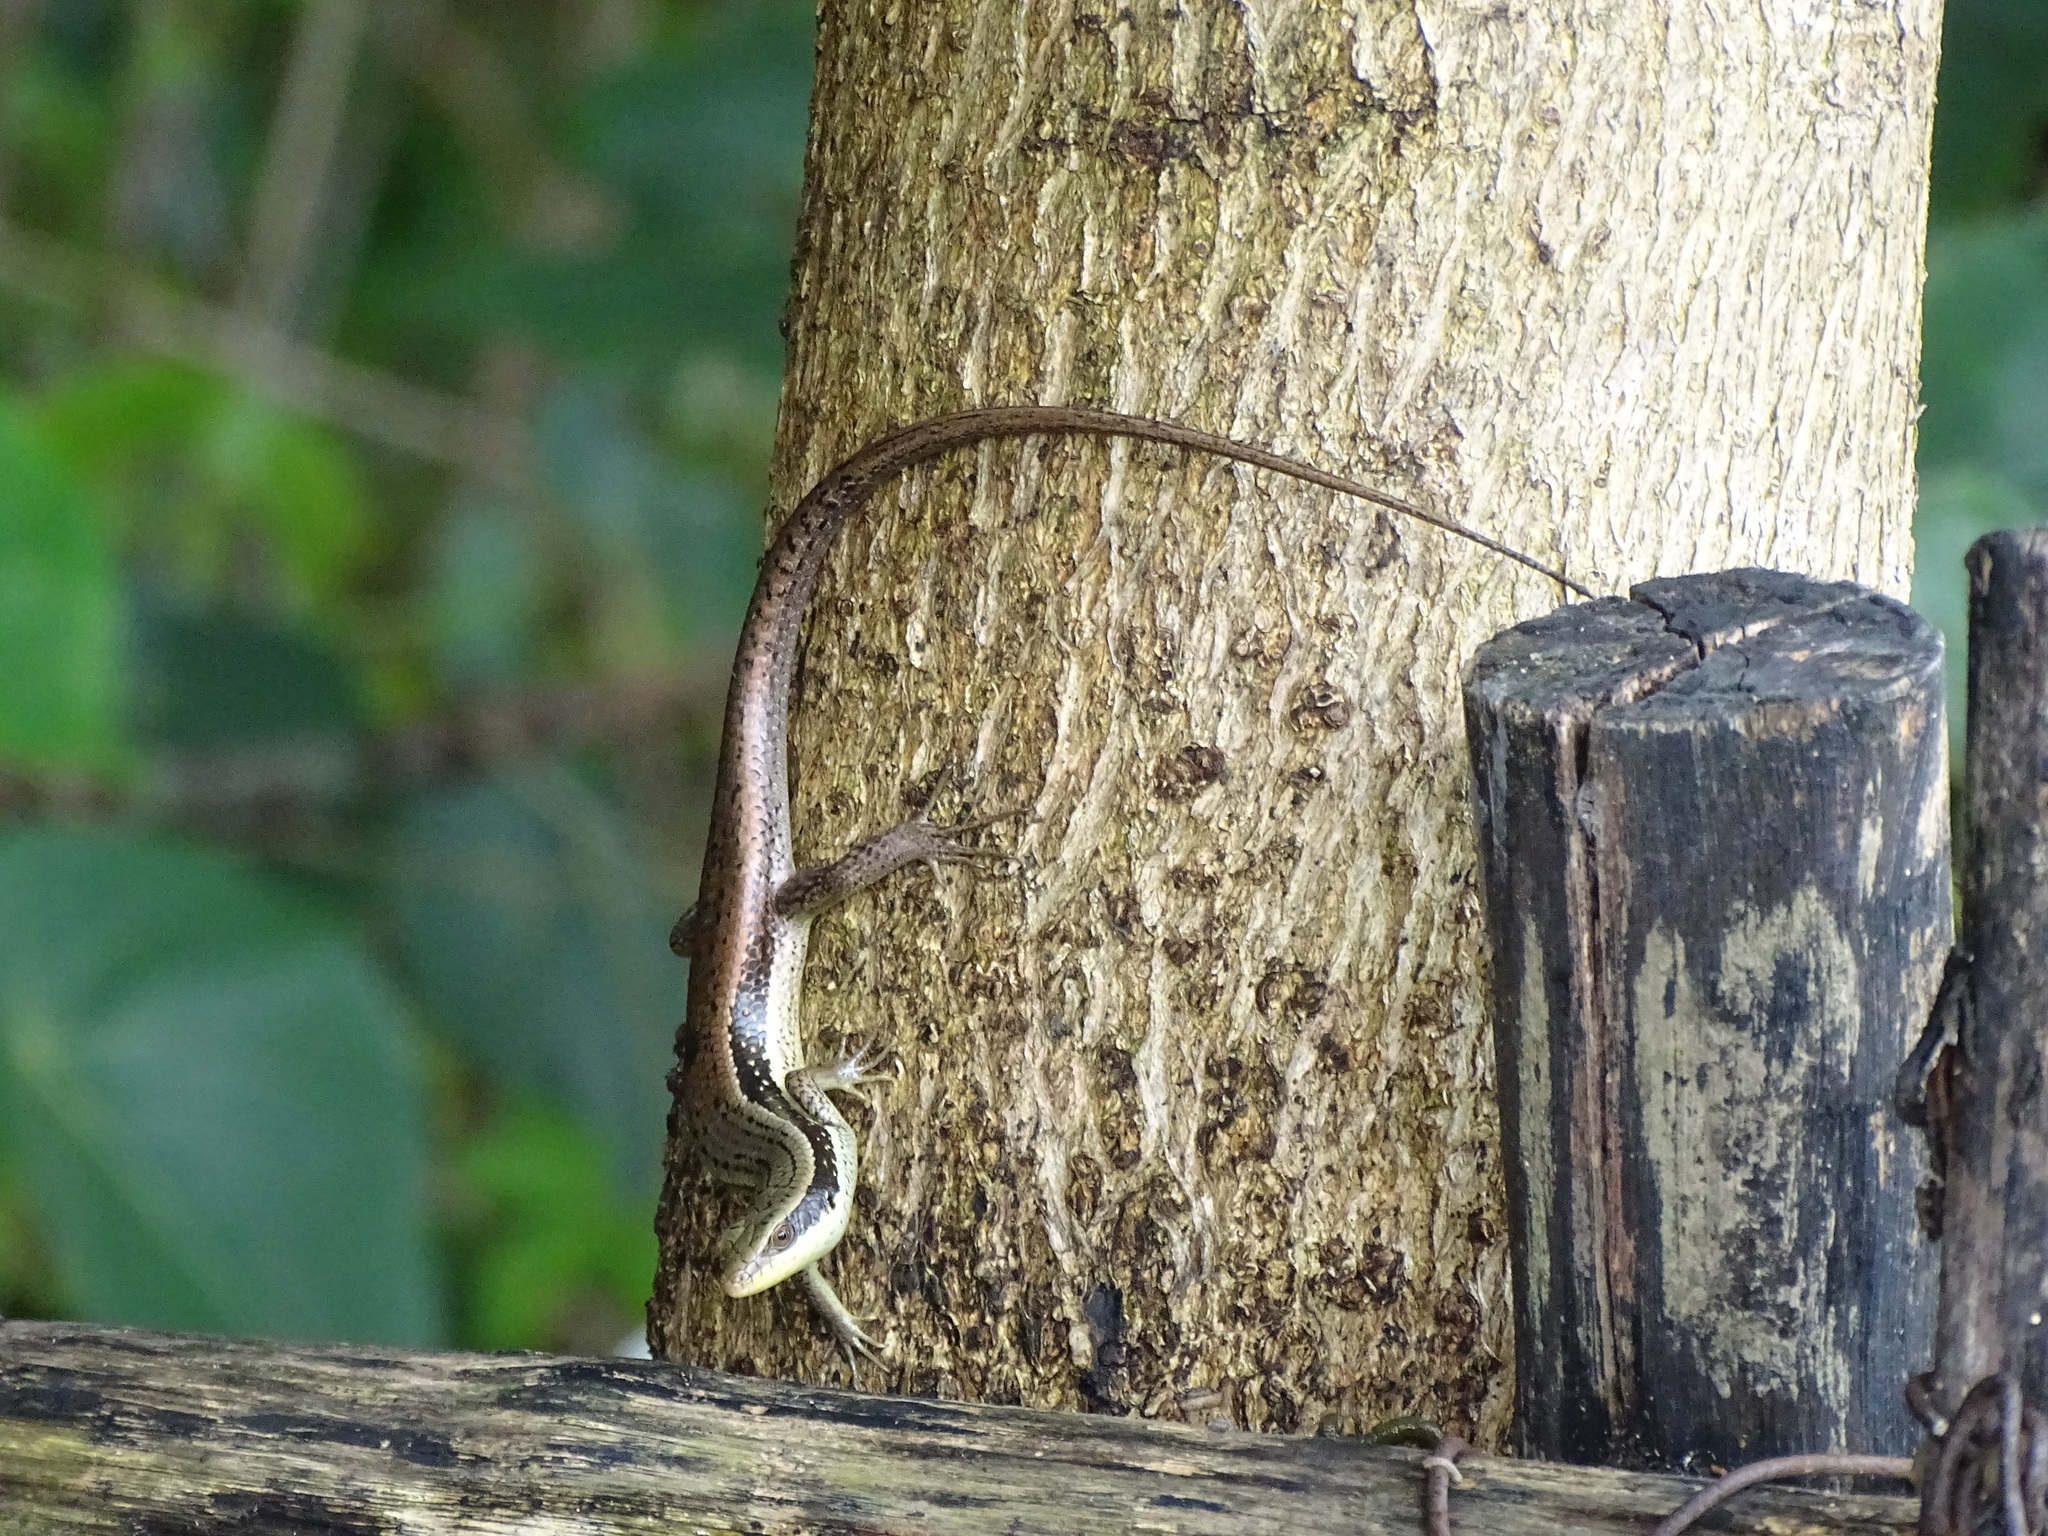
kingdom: Animalia
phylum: Chordata
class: Squamata
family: Scincidae
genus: Eutropis
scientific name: Eutropis longicaudata
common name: Long-tailed sun skink
